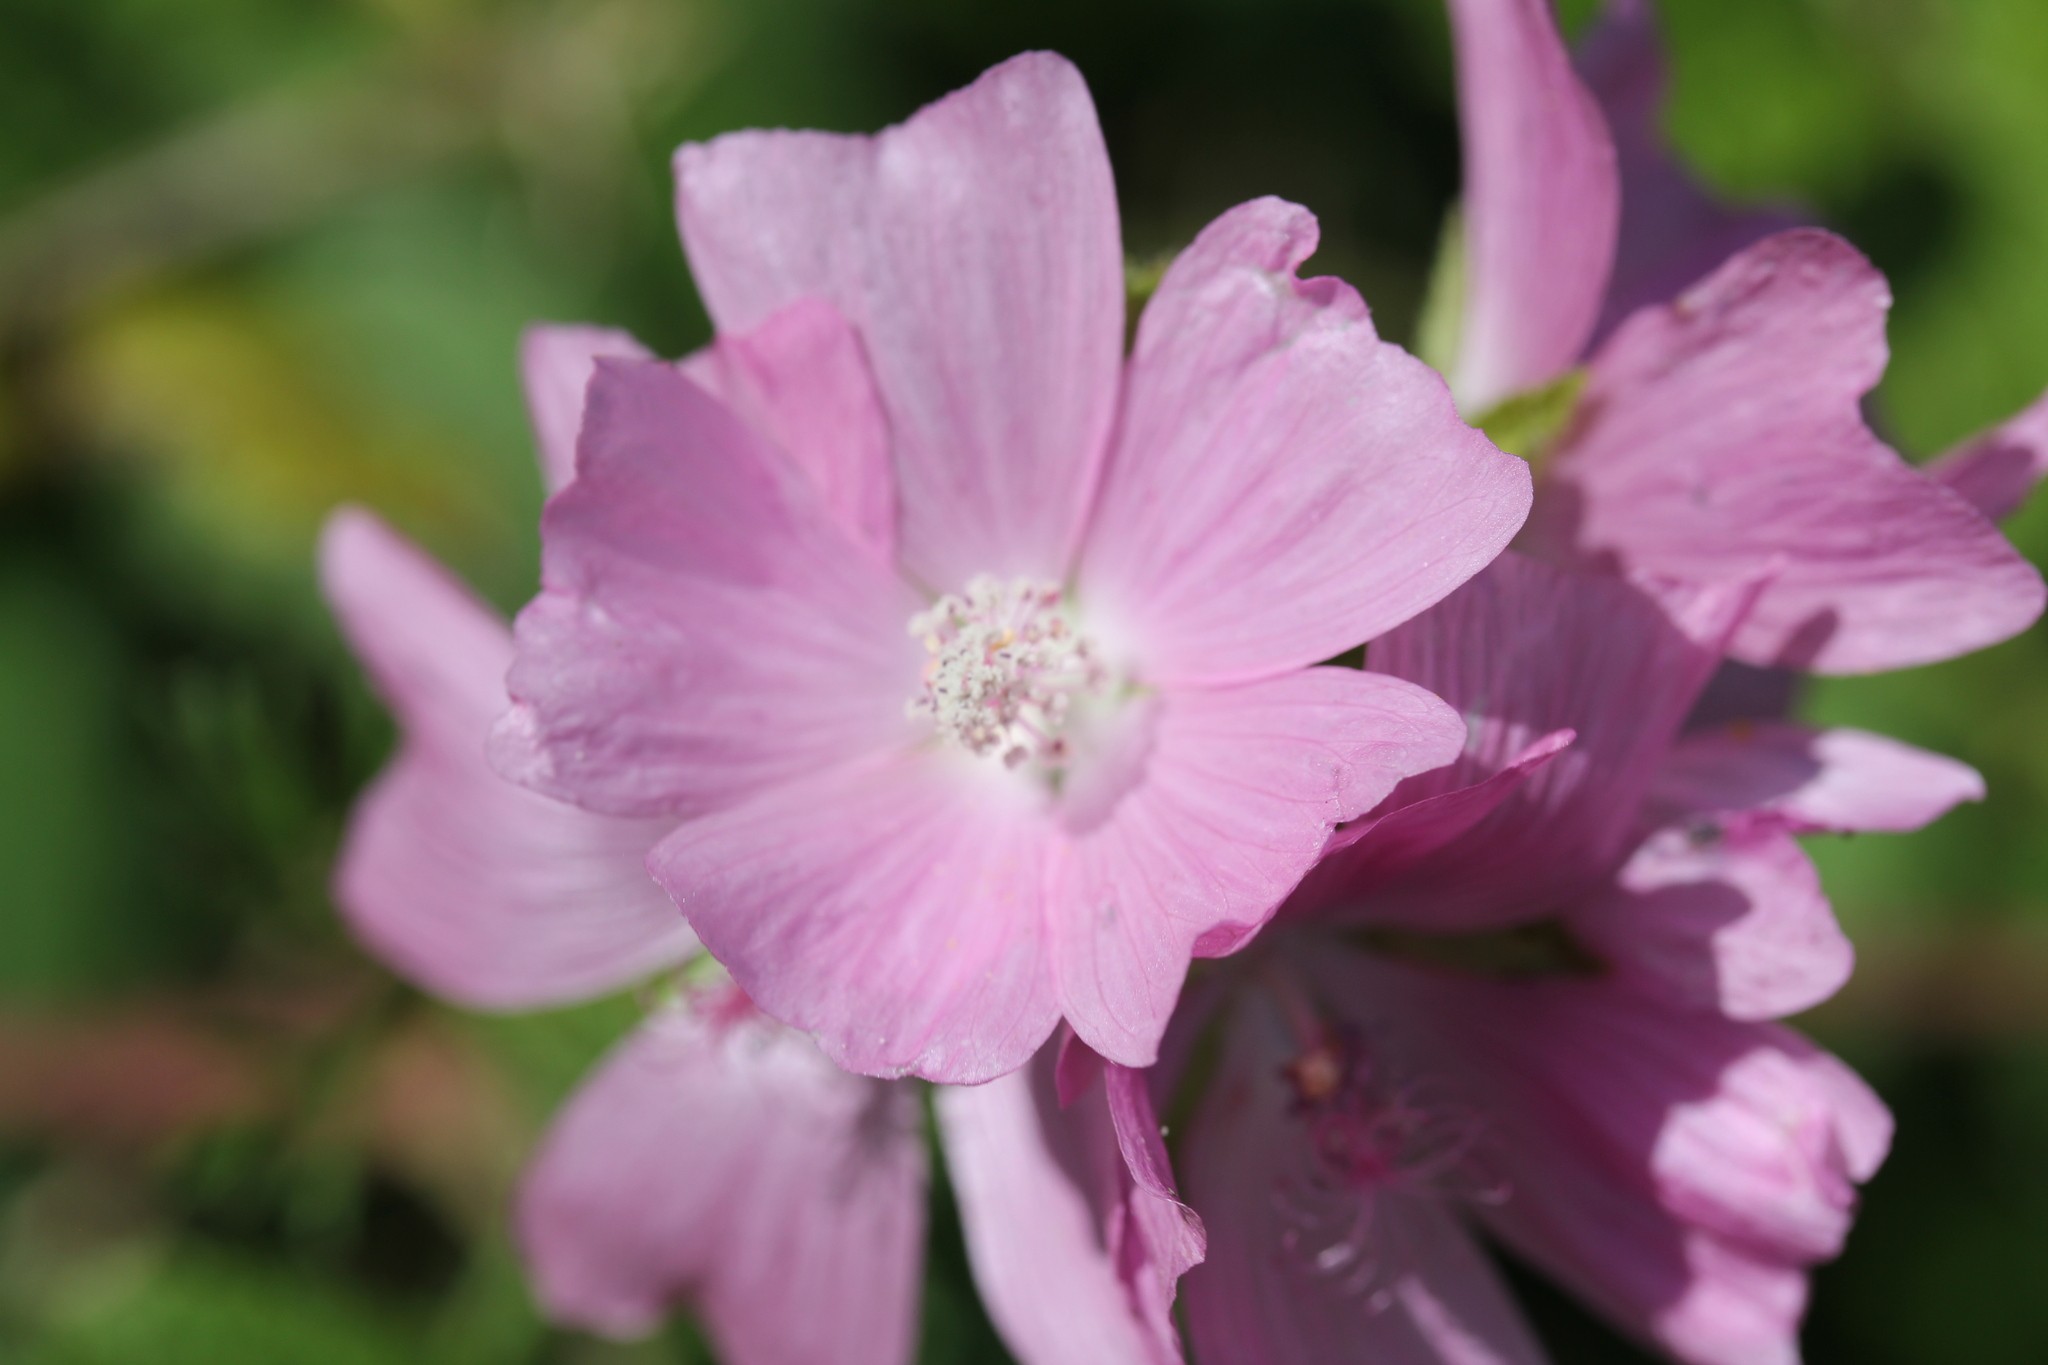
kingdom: Plantae
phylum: Tracheophyta
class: Magnoliopsida
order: Malvales
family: Malvaceae
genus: Malva
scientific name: Malva moschata
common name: Musk mallow
